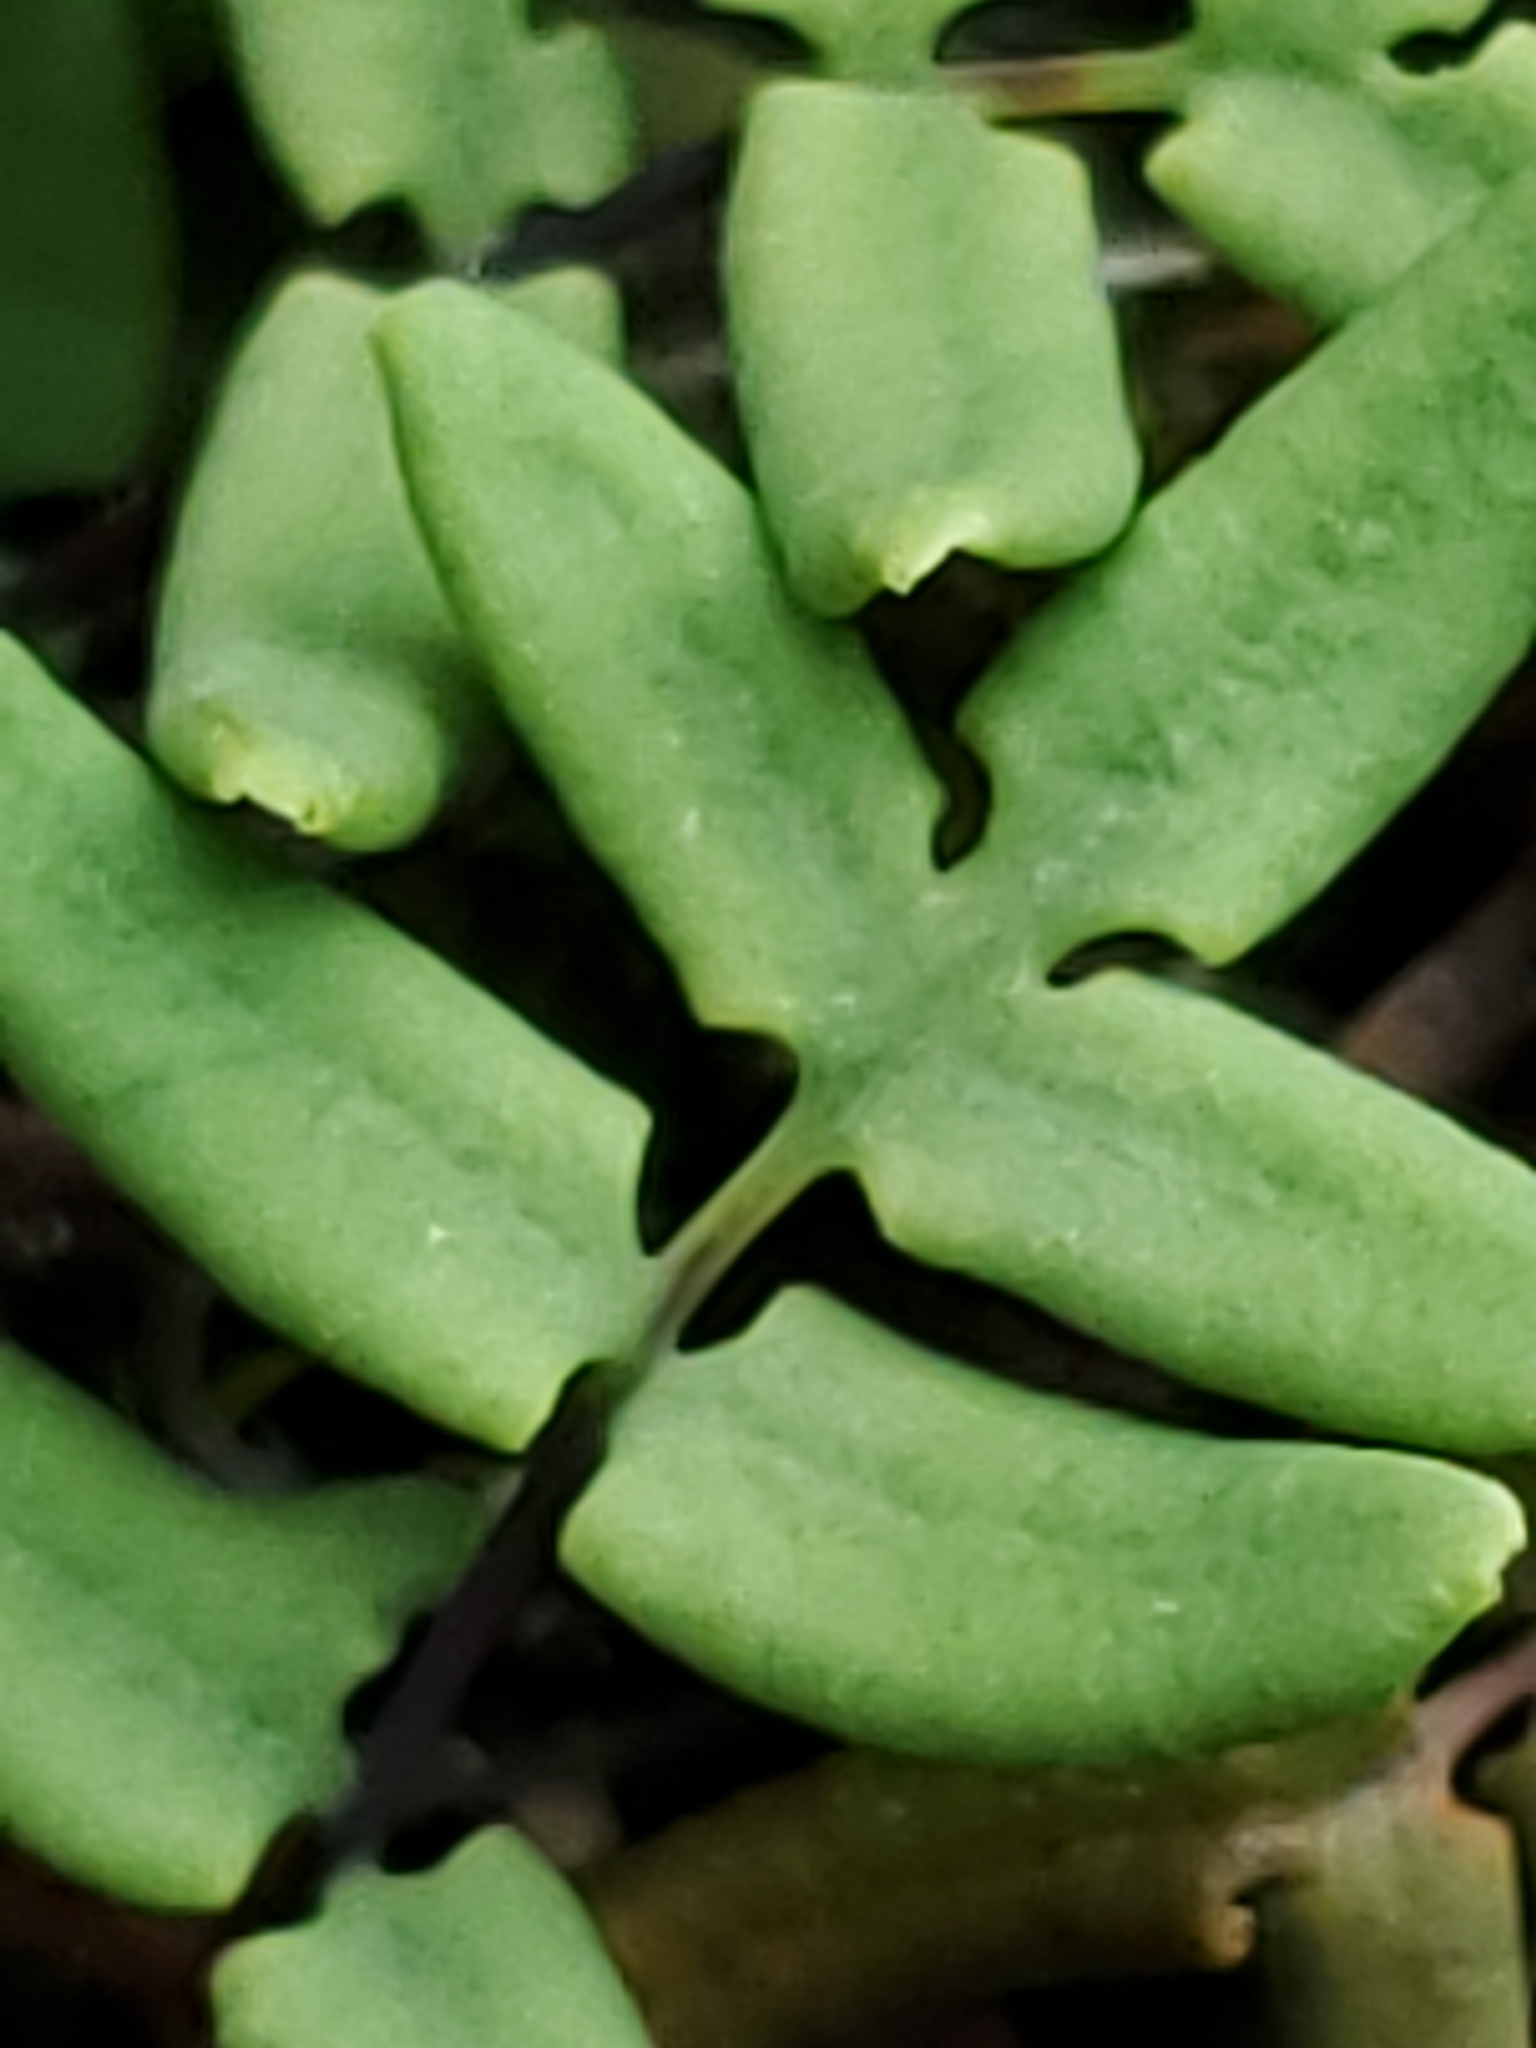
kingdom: Plantae
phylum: Tracheophyta
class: Polypodiopsida
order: Polypodiales
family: Pteridaceae
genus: Pellaea
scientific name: Pellaea glabella
